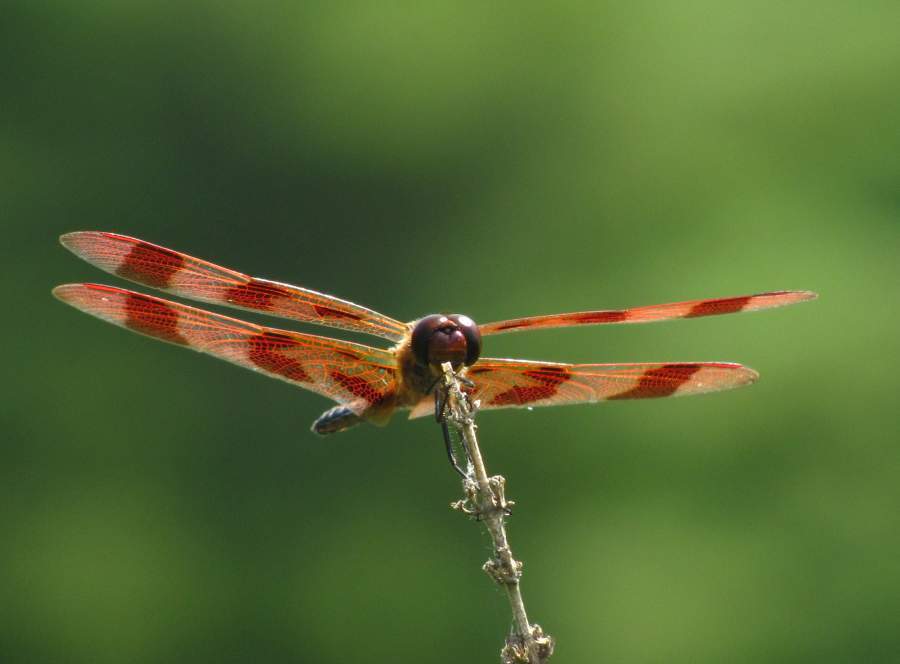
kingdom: Animalia
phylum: Arthropoda
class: Insecta
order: Odonata
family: Libellulidae
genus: Celithemis
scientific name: Celithemis eponina
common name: Halloween pennant
